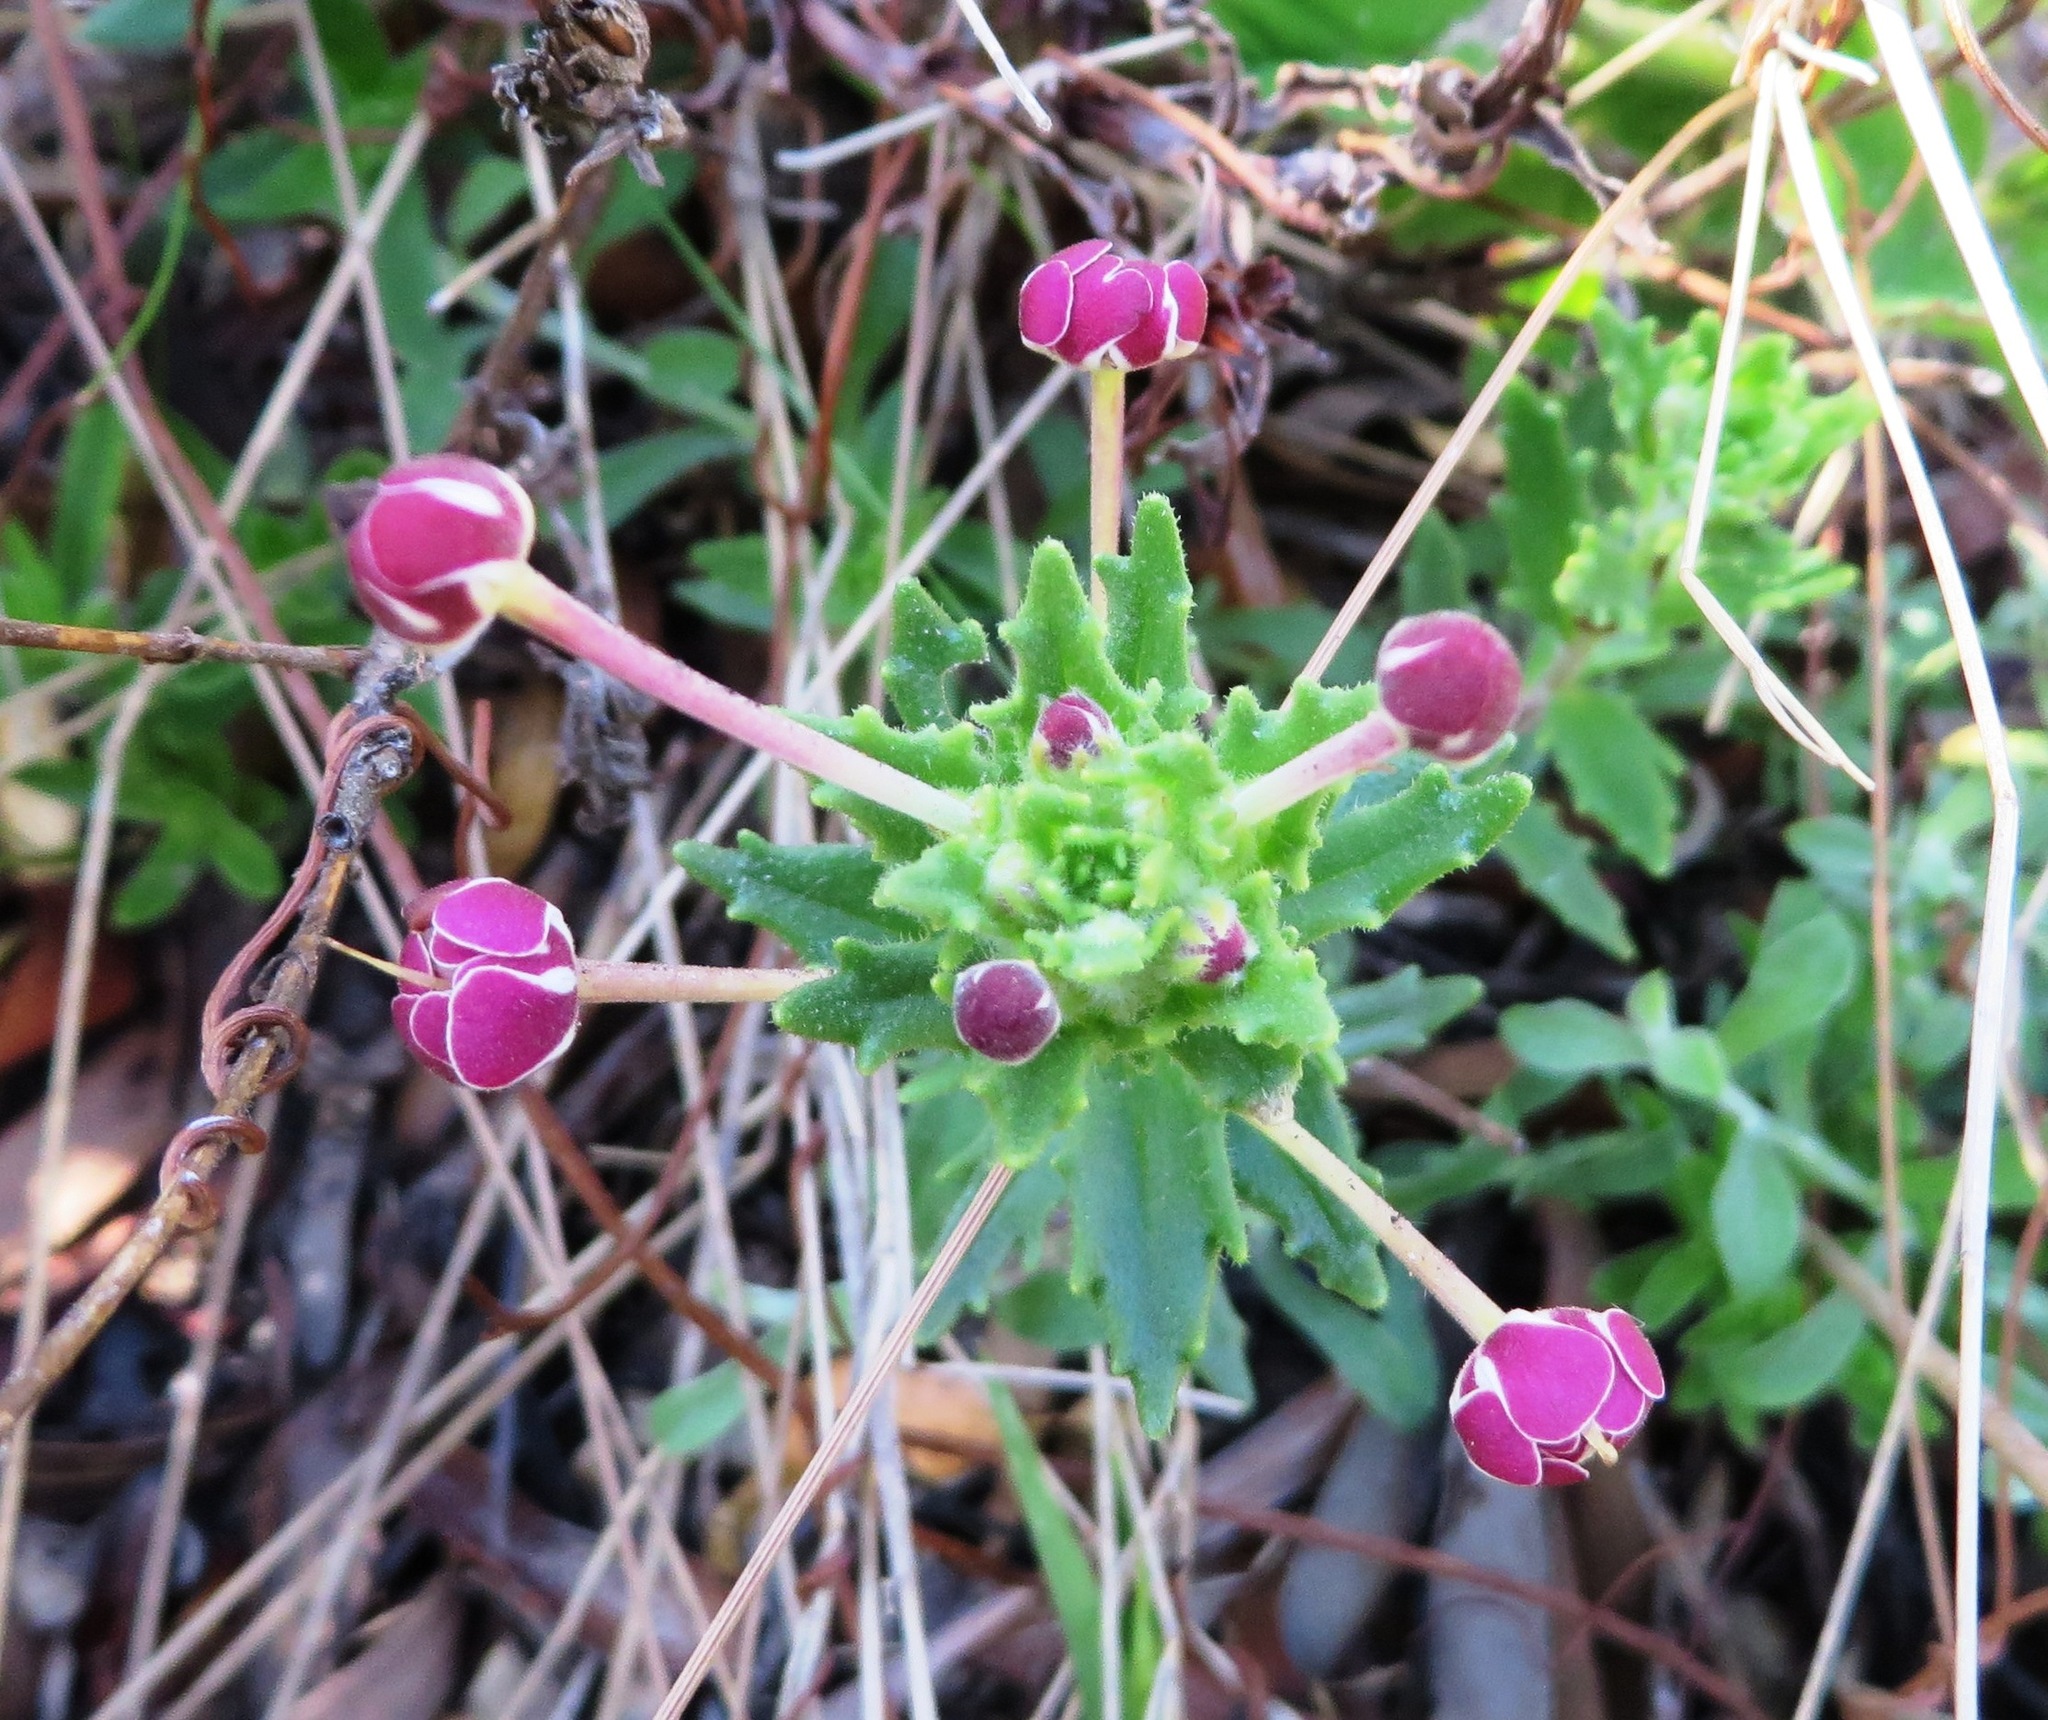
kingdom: Plantae
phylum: Tracheophyta
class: Magnoliopsida
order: Lamiales
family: Scrophulariaceae
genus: Zaluzianskya
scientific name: Zaluzianskya capensis
